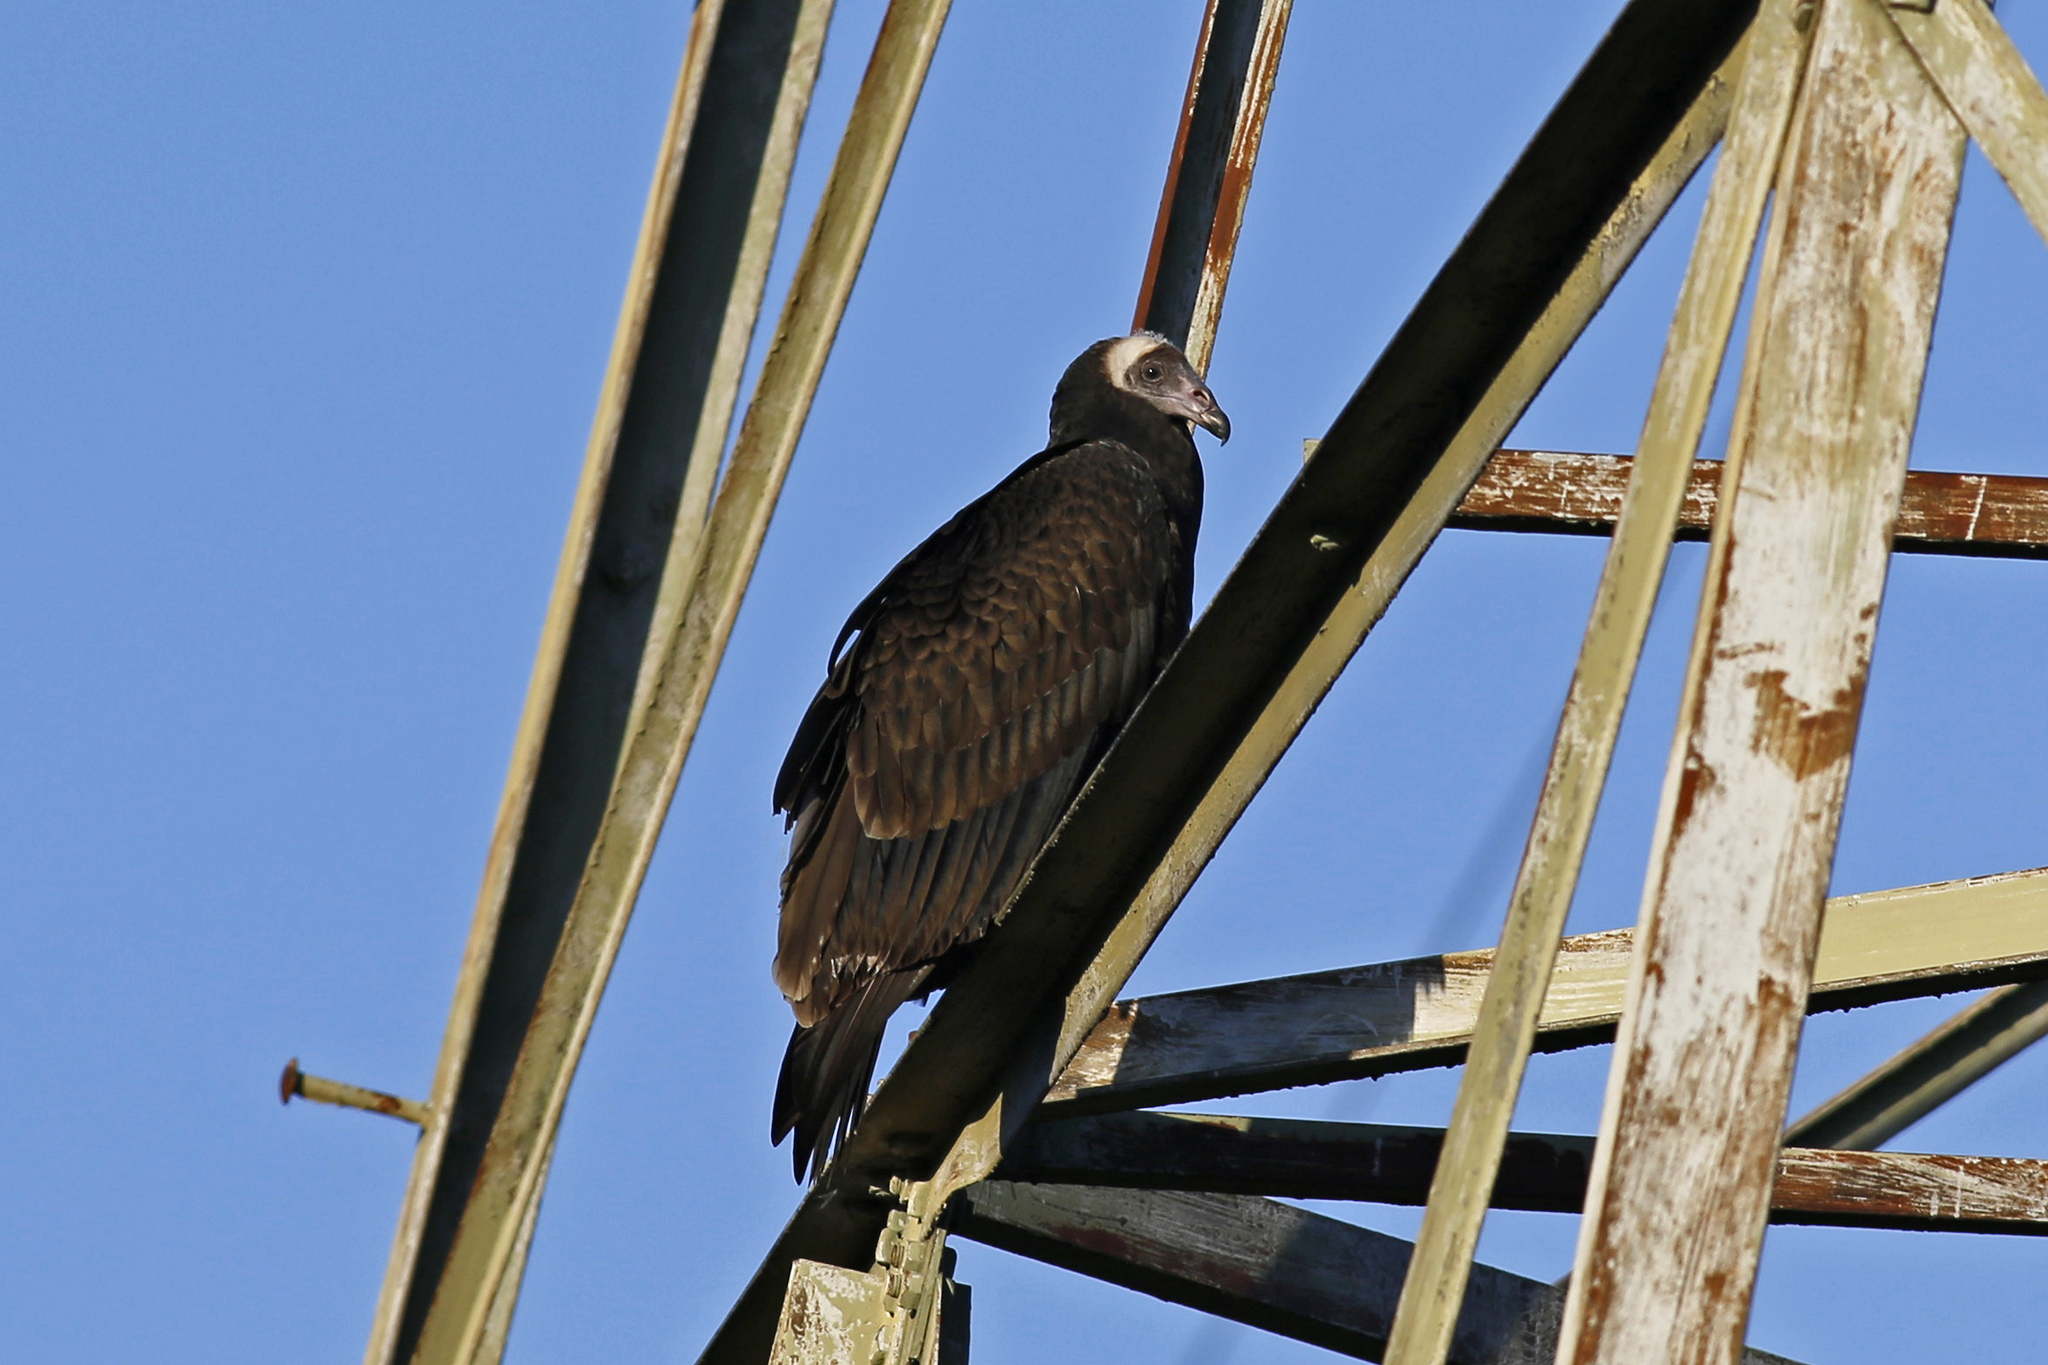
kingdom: Animalia
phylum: Chordata
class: Aves
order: Accipitriformes
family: Cathartidae
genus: Cathartes
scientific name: Cathartes aura
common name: Turkey vulture
